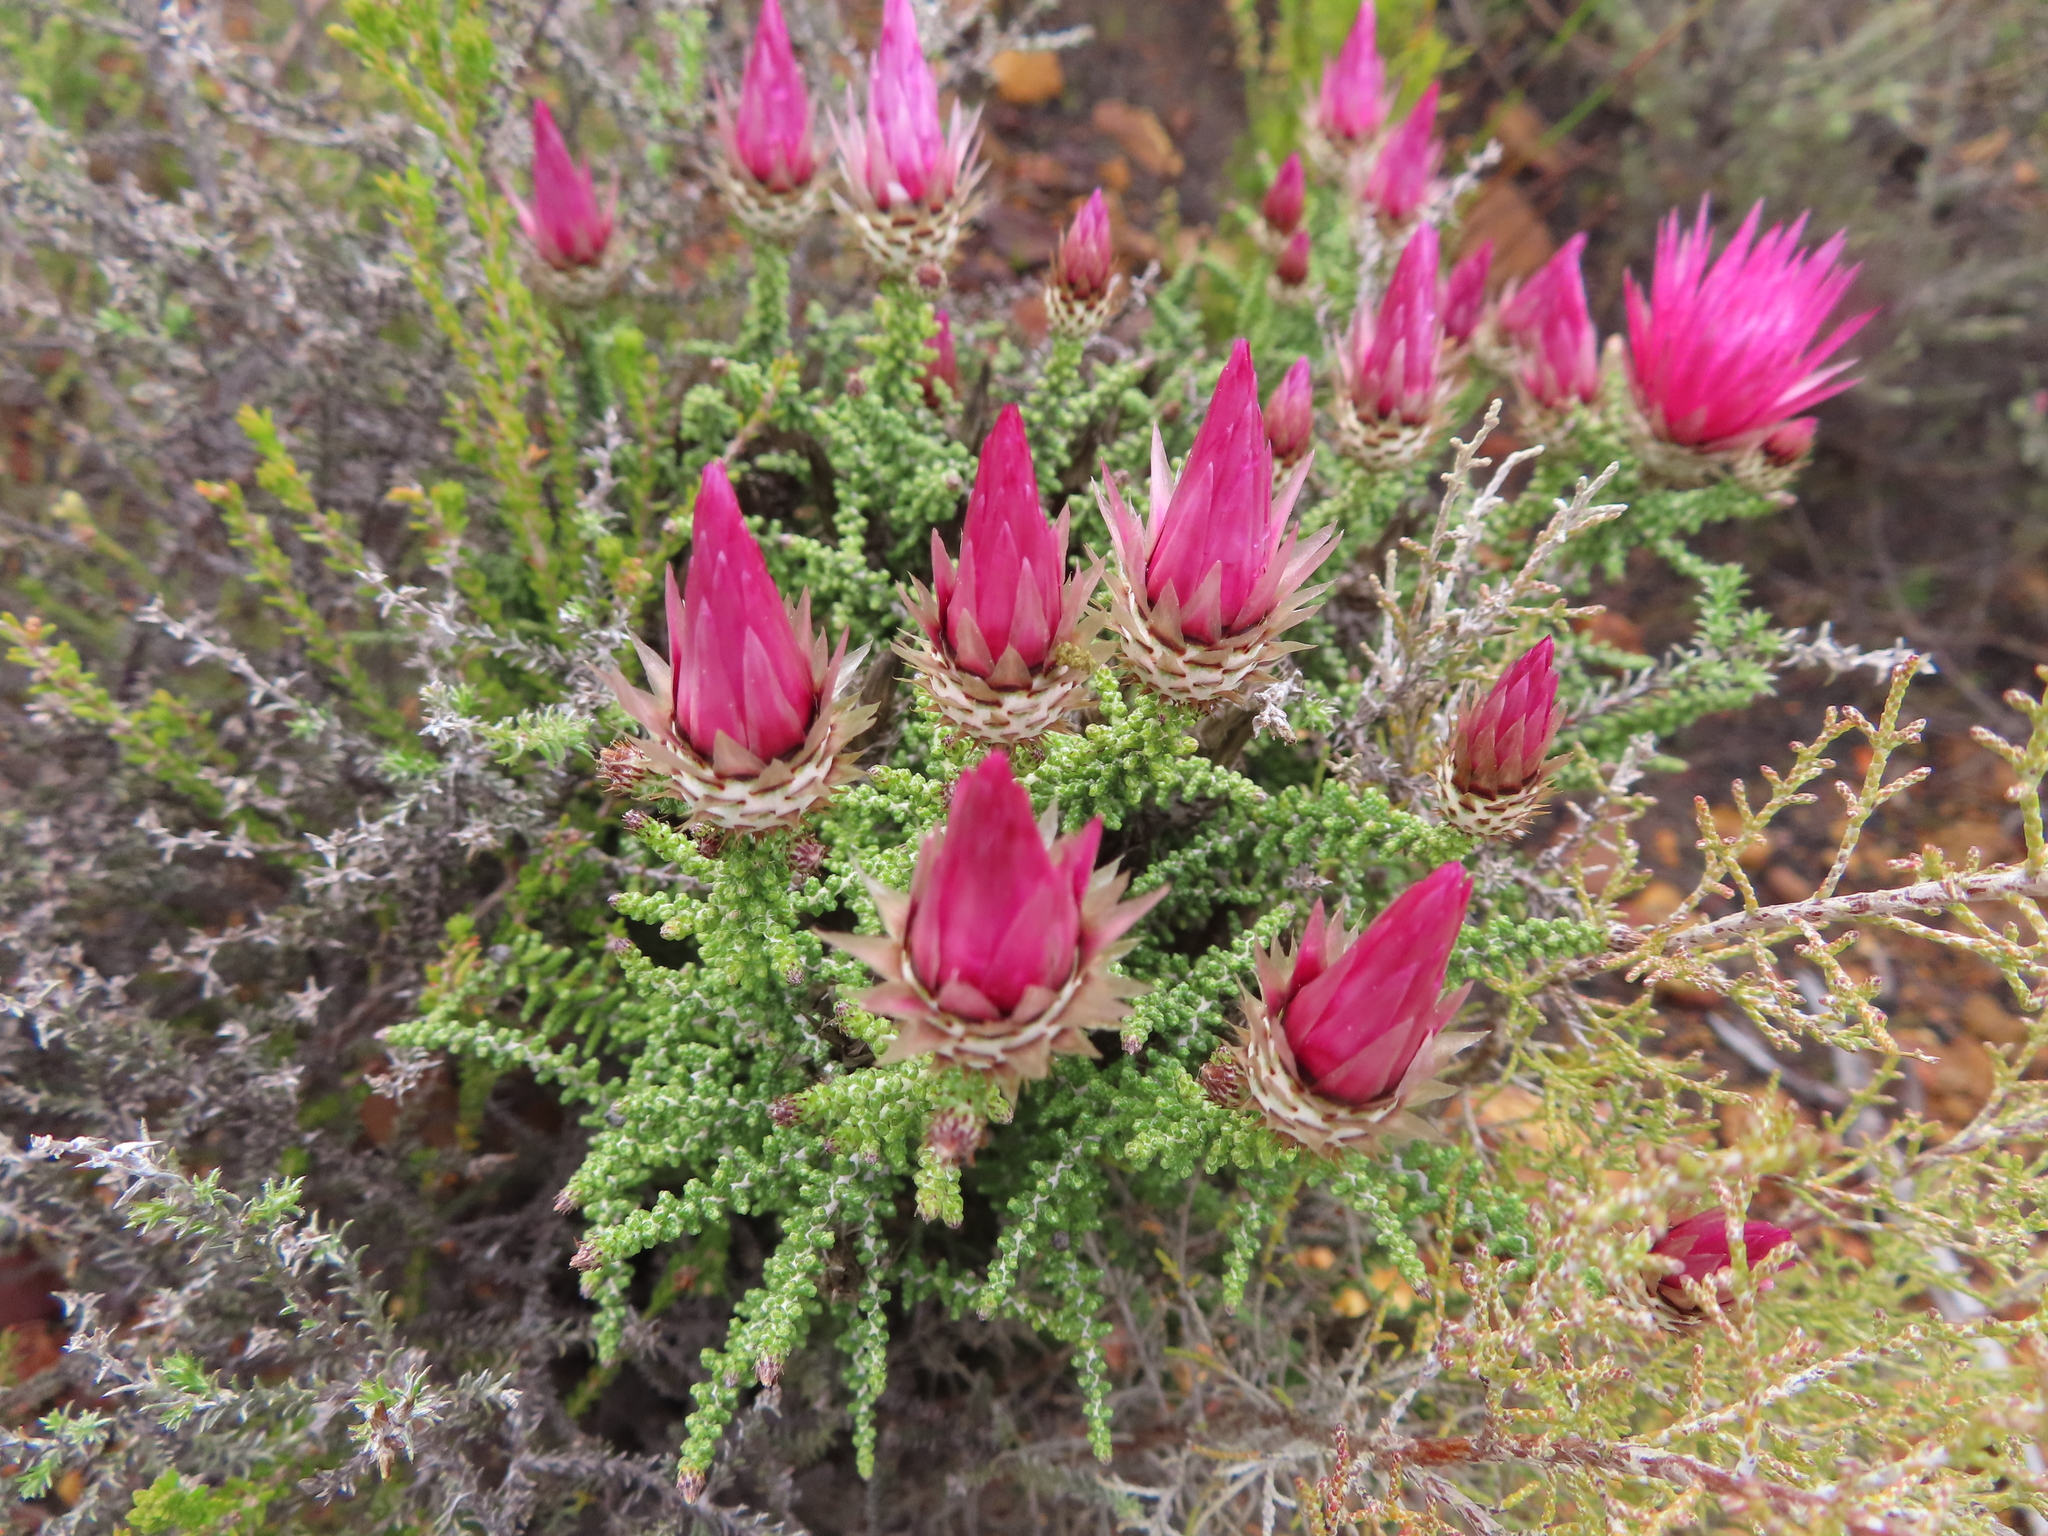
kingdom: Plantae
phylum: Tracheophyta
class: Magnoliopsida
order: Asterales
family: Asteraceae
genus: Phaenocoma
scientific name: Phaenocoma prolifera
